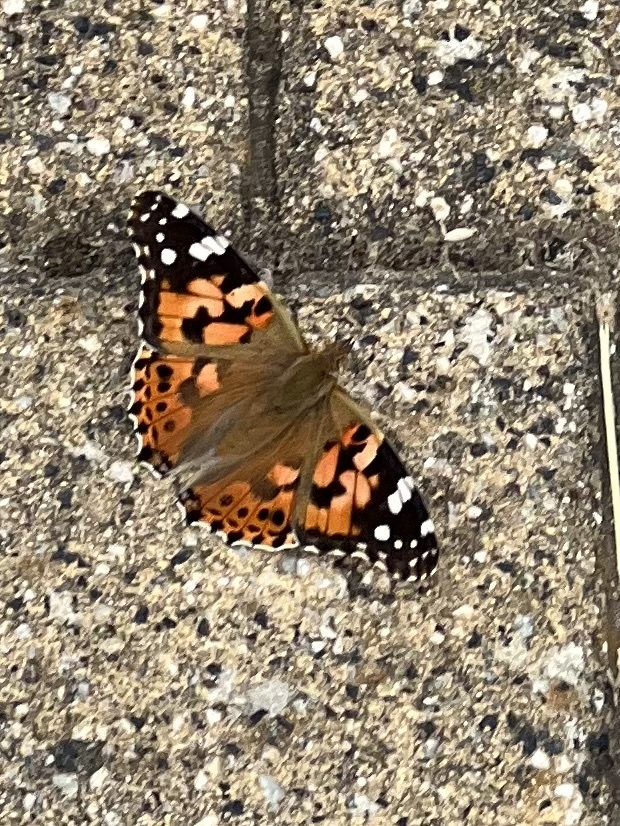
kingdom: Animalia
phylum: Arthropoda
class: Insecta
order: Lepidoptera
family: Nymphalidae
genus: Vanessa
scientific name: Vanessa cardui
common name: Painted lady
